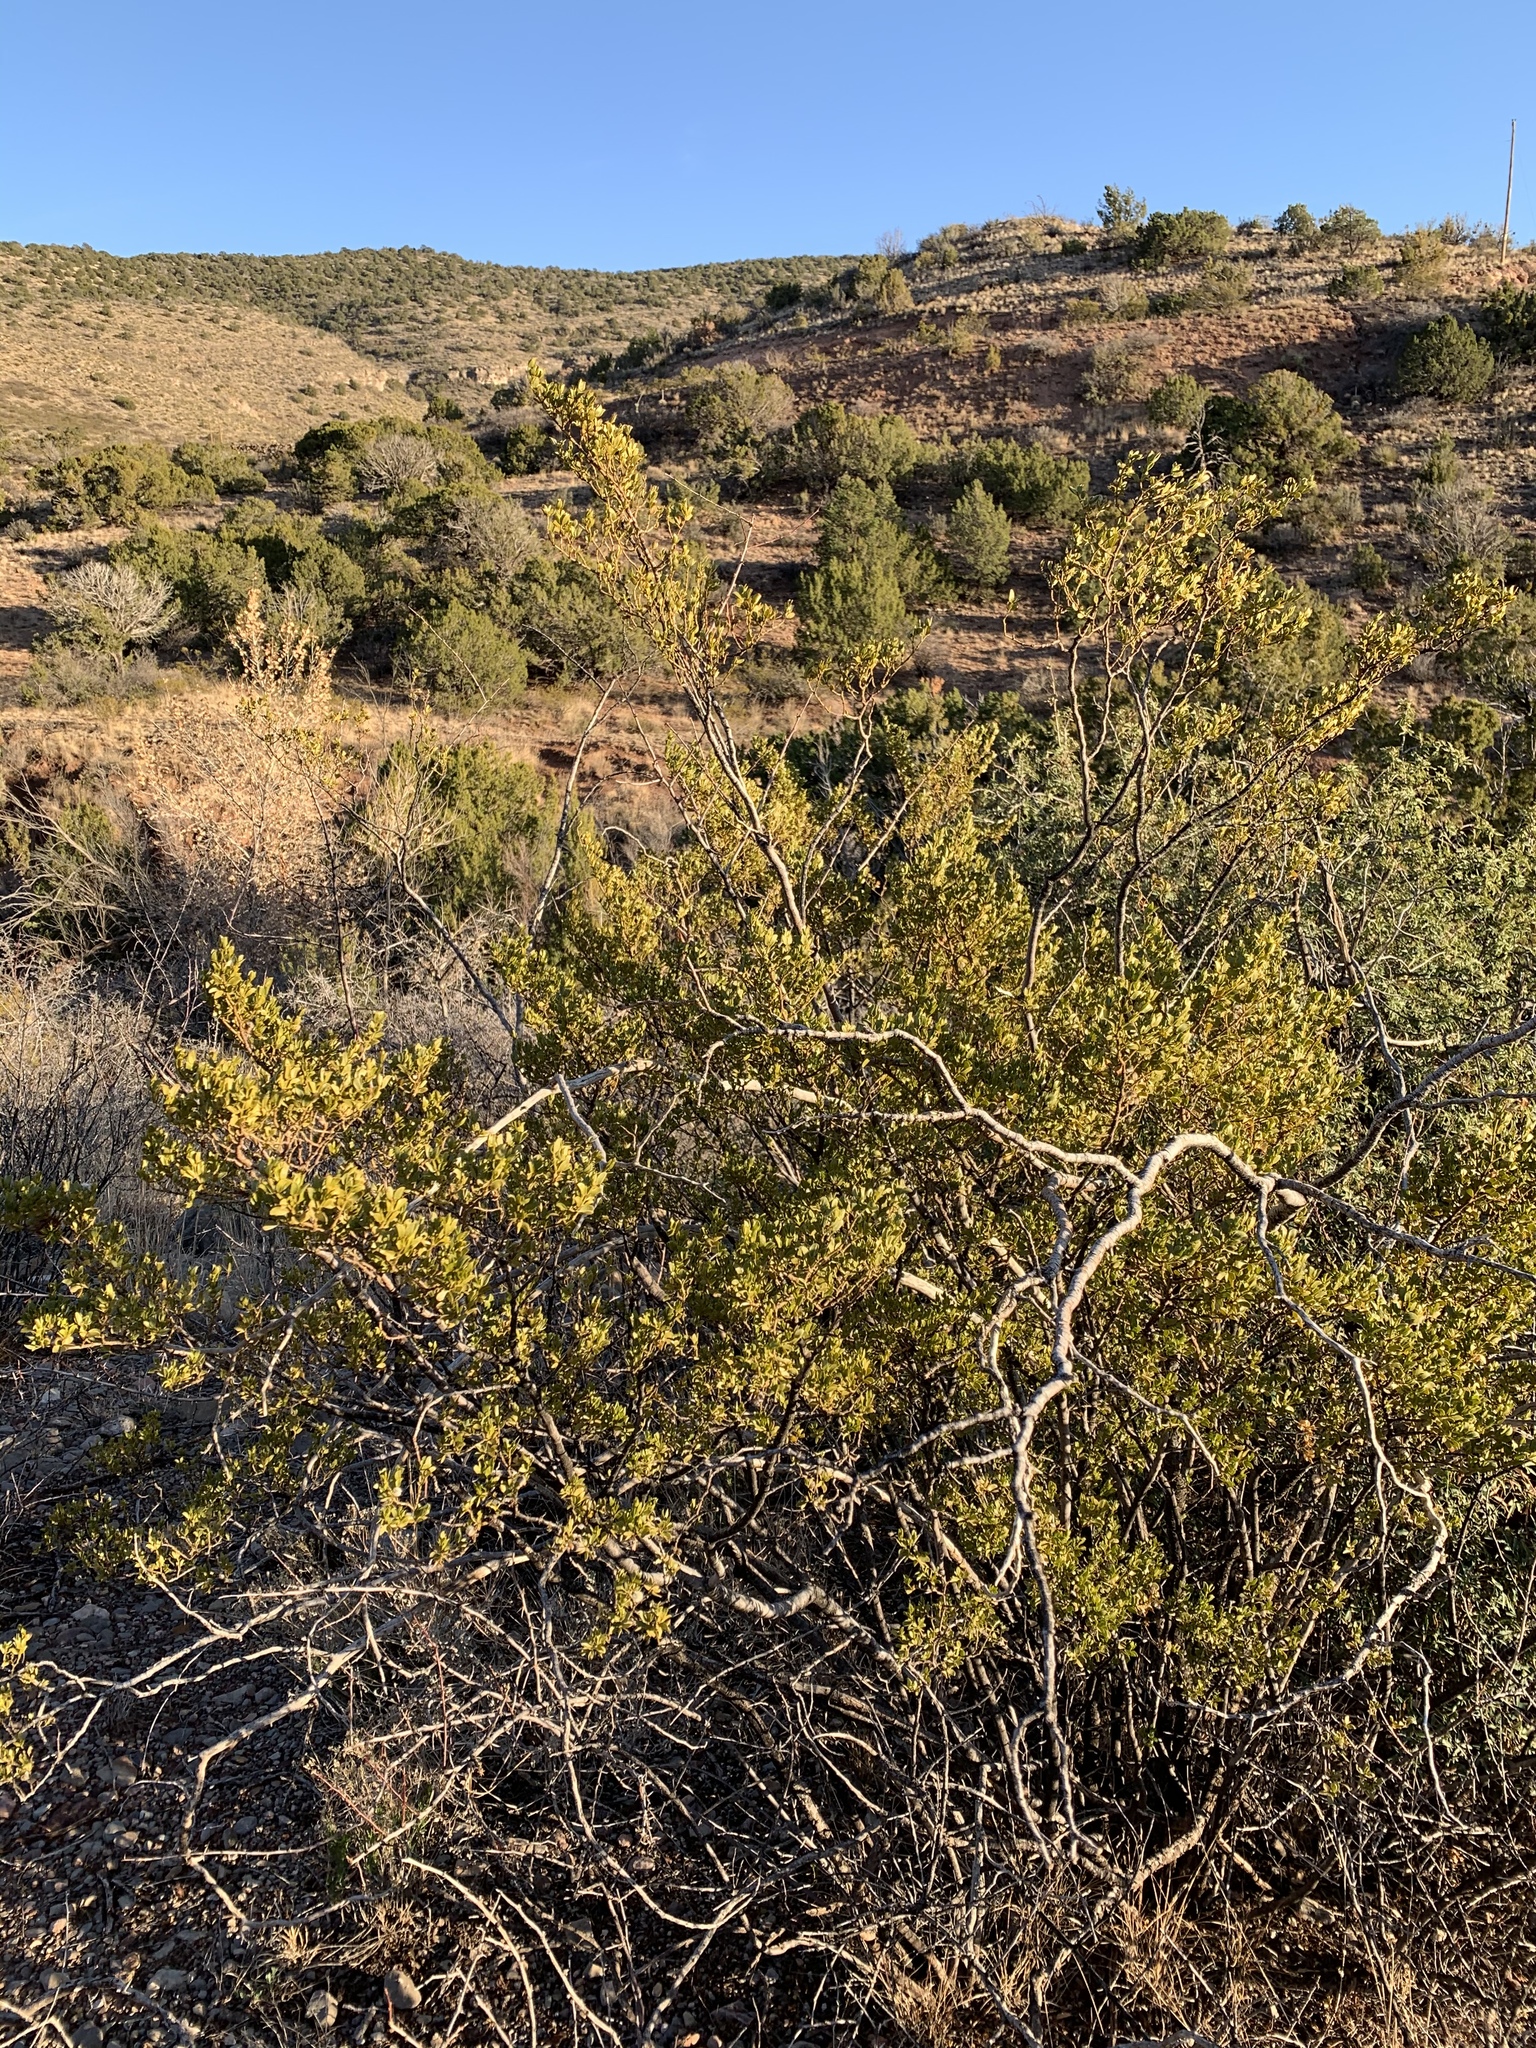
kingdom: Plantae
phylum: Tracheophyta
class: Magnoliopsida
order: Zygophyllales
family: Zygophyllaceae
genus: Larrea
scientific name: Larrea tridentata
